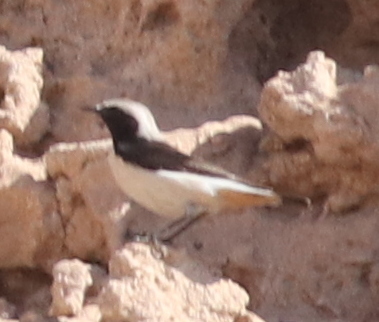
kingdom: Animalia
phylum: Chordata
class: Aves
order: Passeriformes
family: Muscicapidae
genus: Oenanthe
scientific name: Oenanthe lugens
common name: Mourning wheatear
